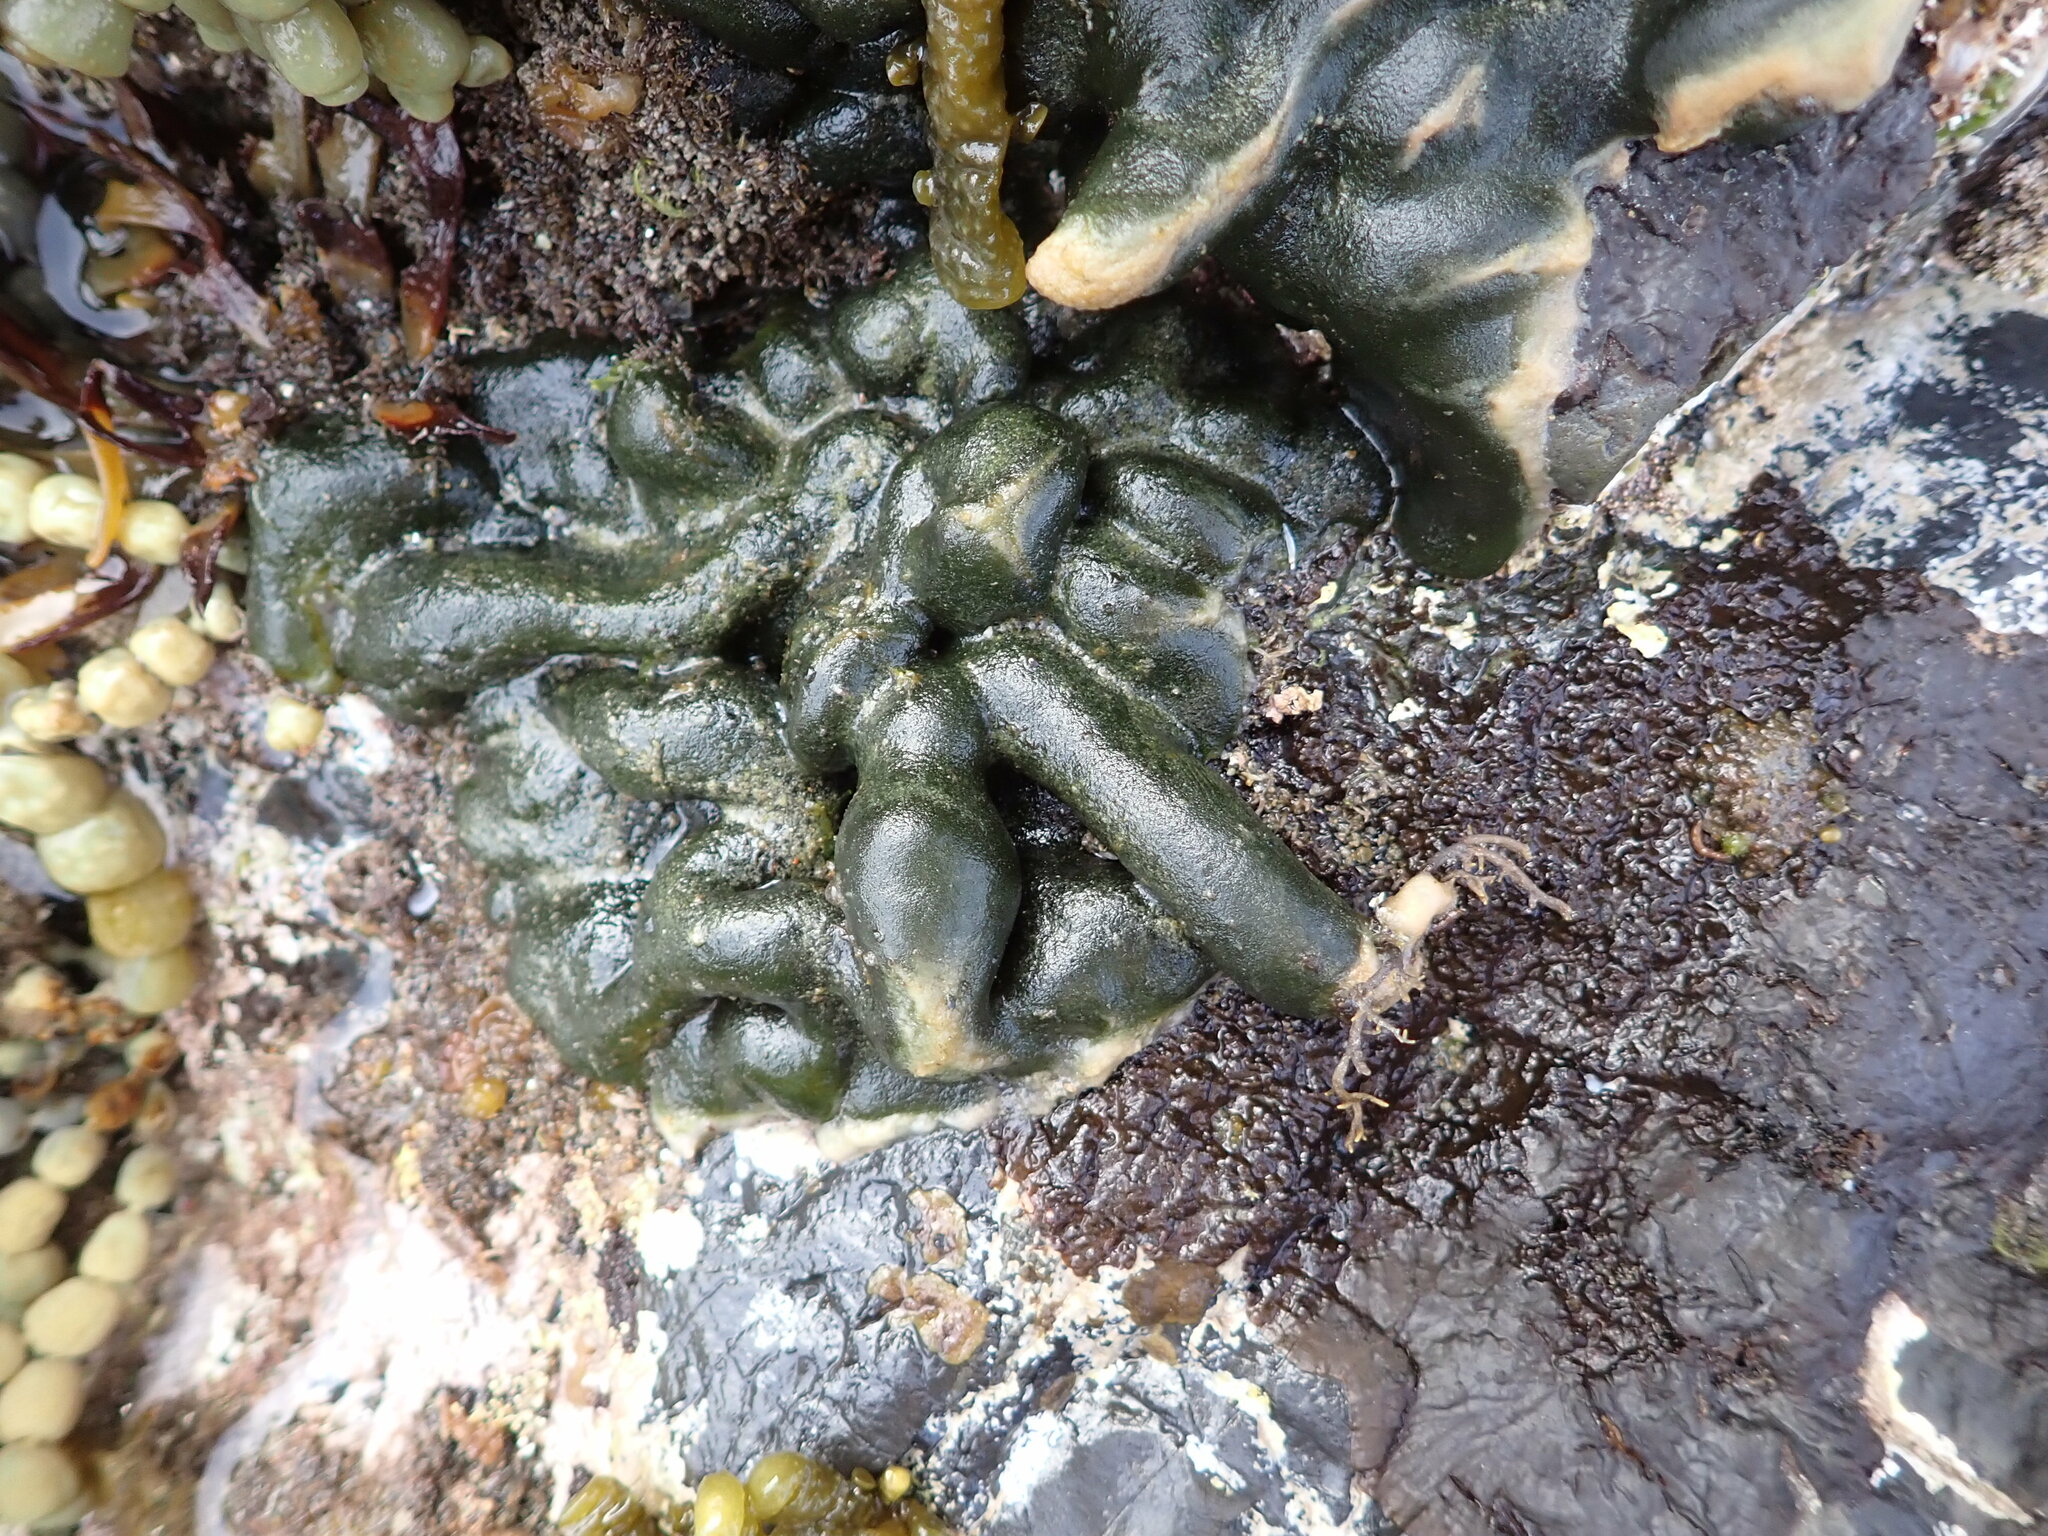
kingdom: Plantae
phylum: Chlorophyta
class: Ulvophyceae
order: Bryopsidales
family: Codiaceae
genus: Codium
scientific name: Codium convolutum
